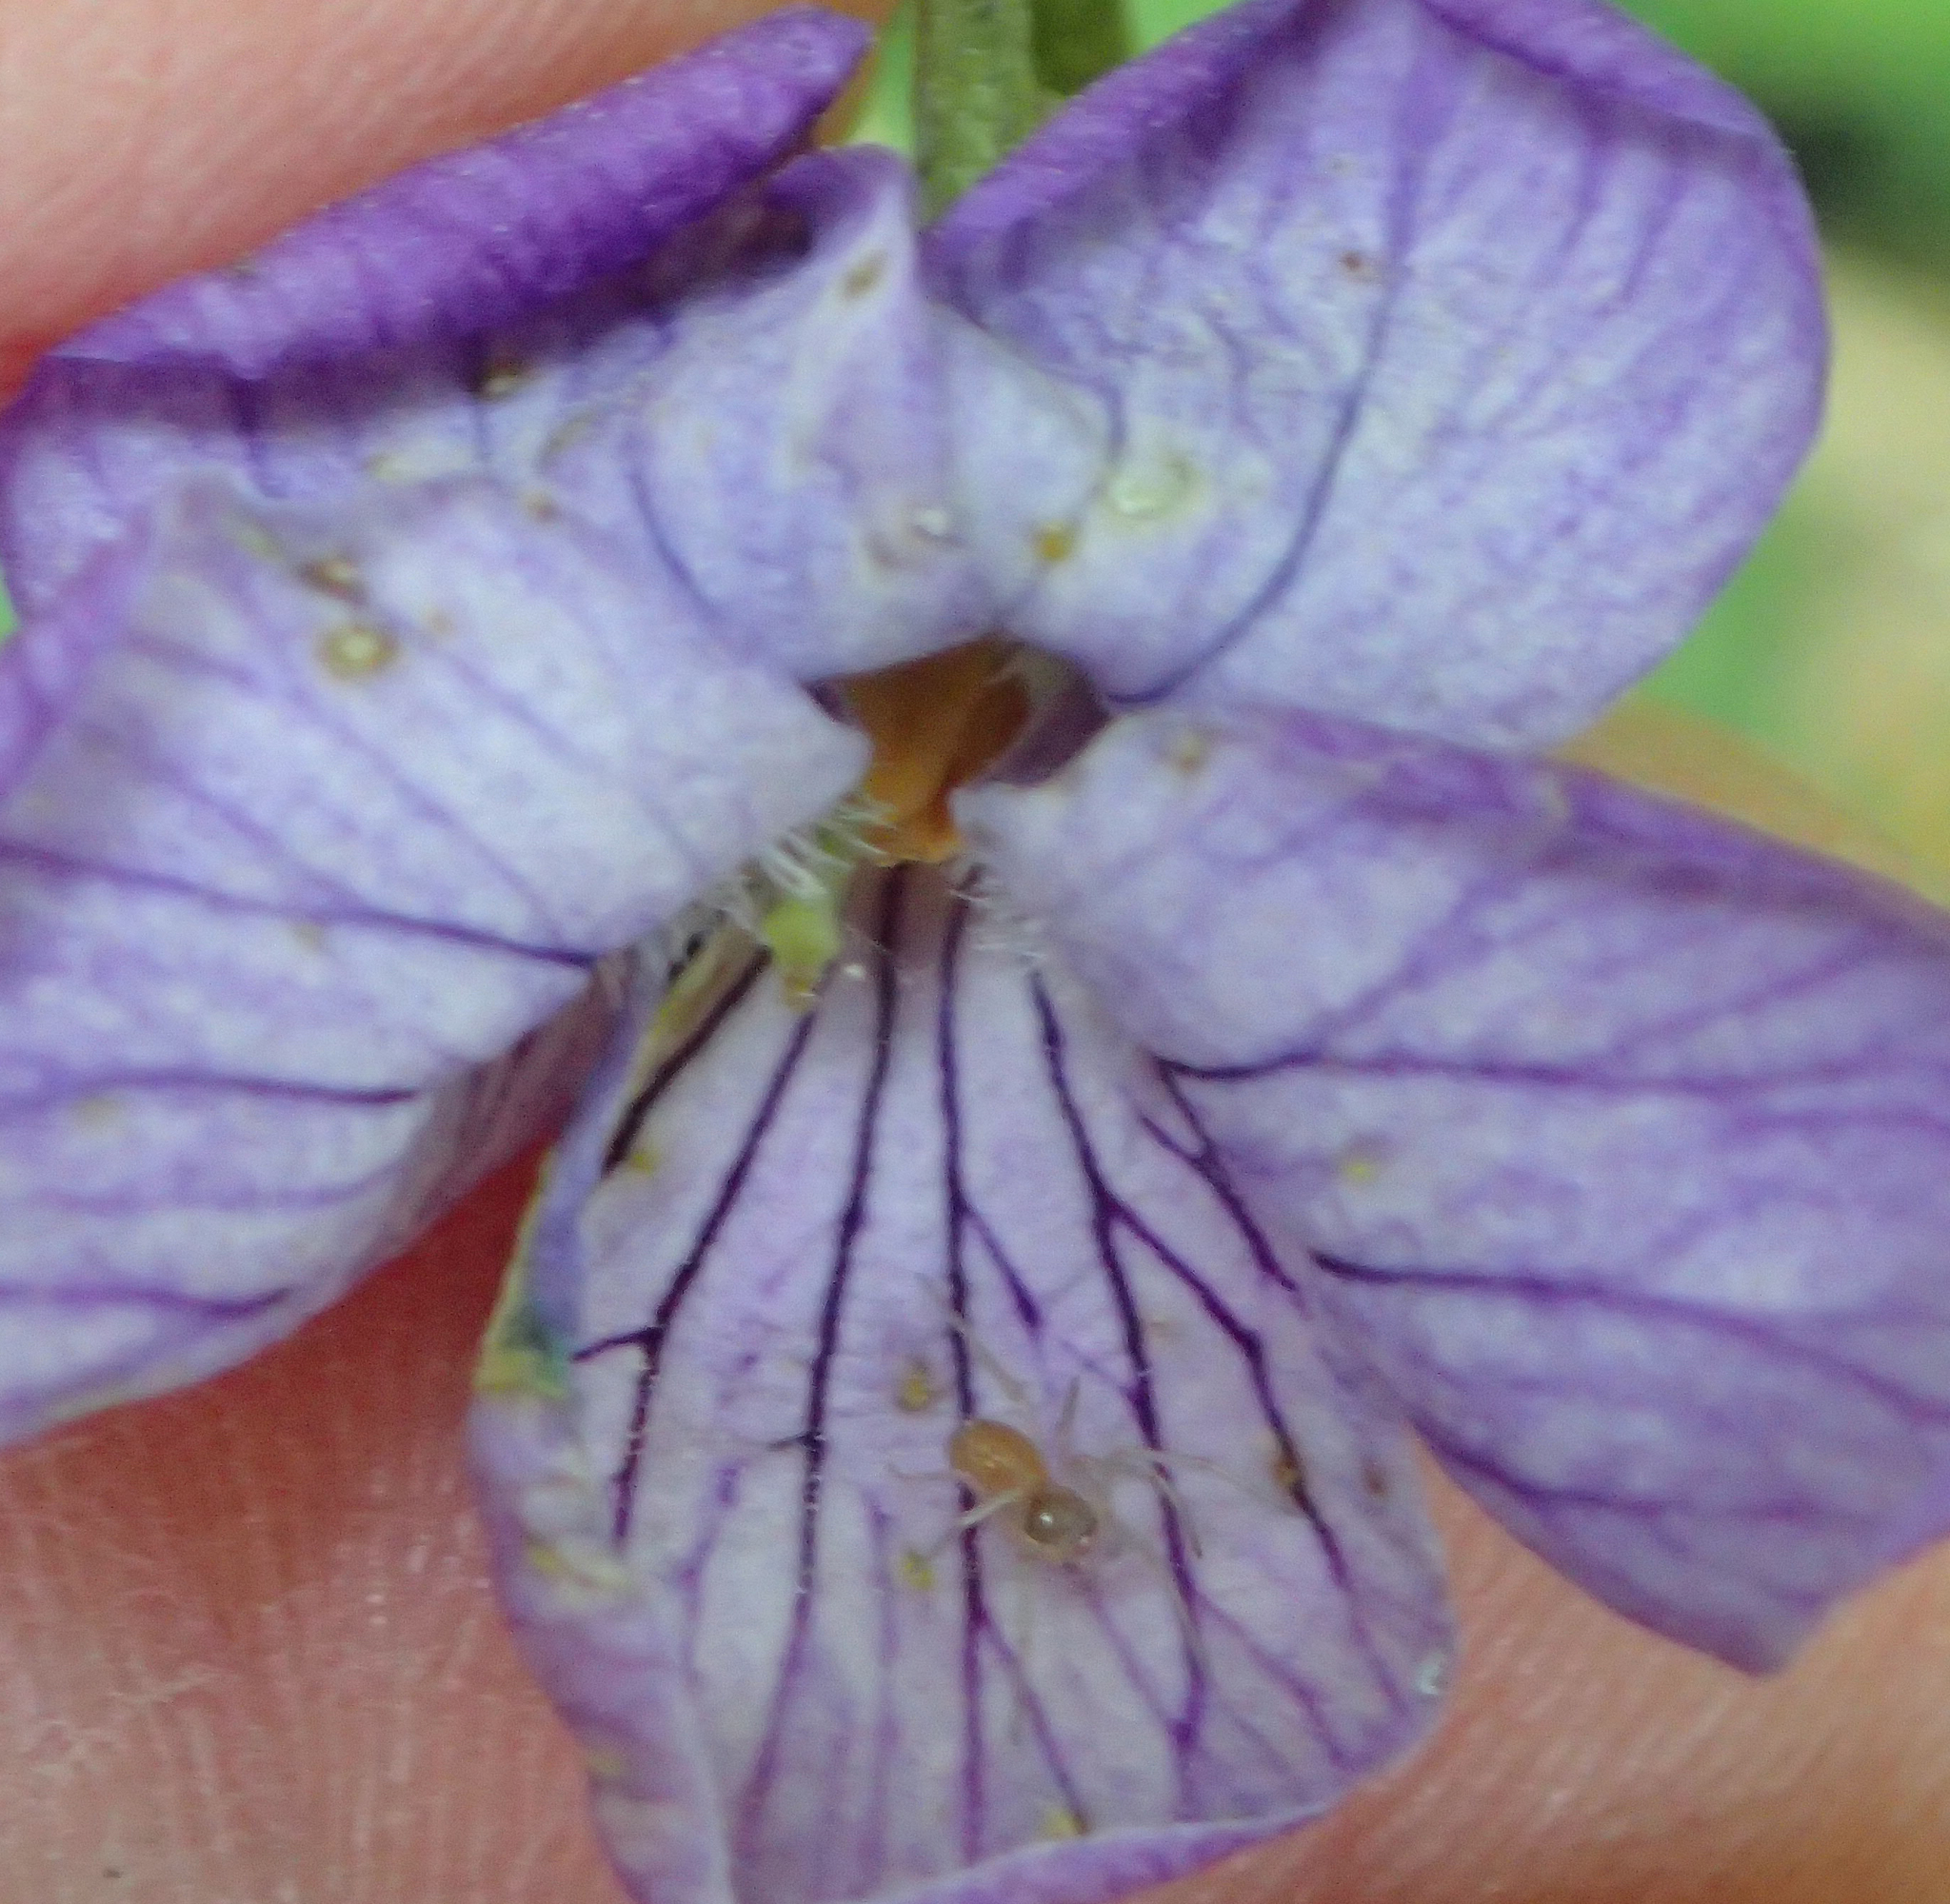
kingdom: Plantae
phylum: Tracheophyta
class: Magnoliopsida
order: Malpighiales
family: Violaceae
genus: Viola
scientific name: Viola langsdorffii
